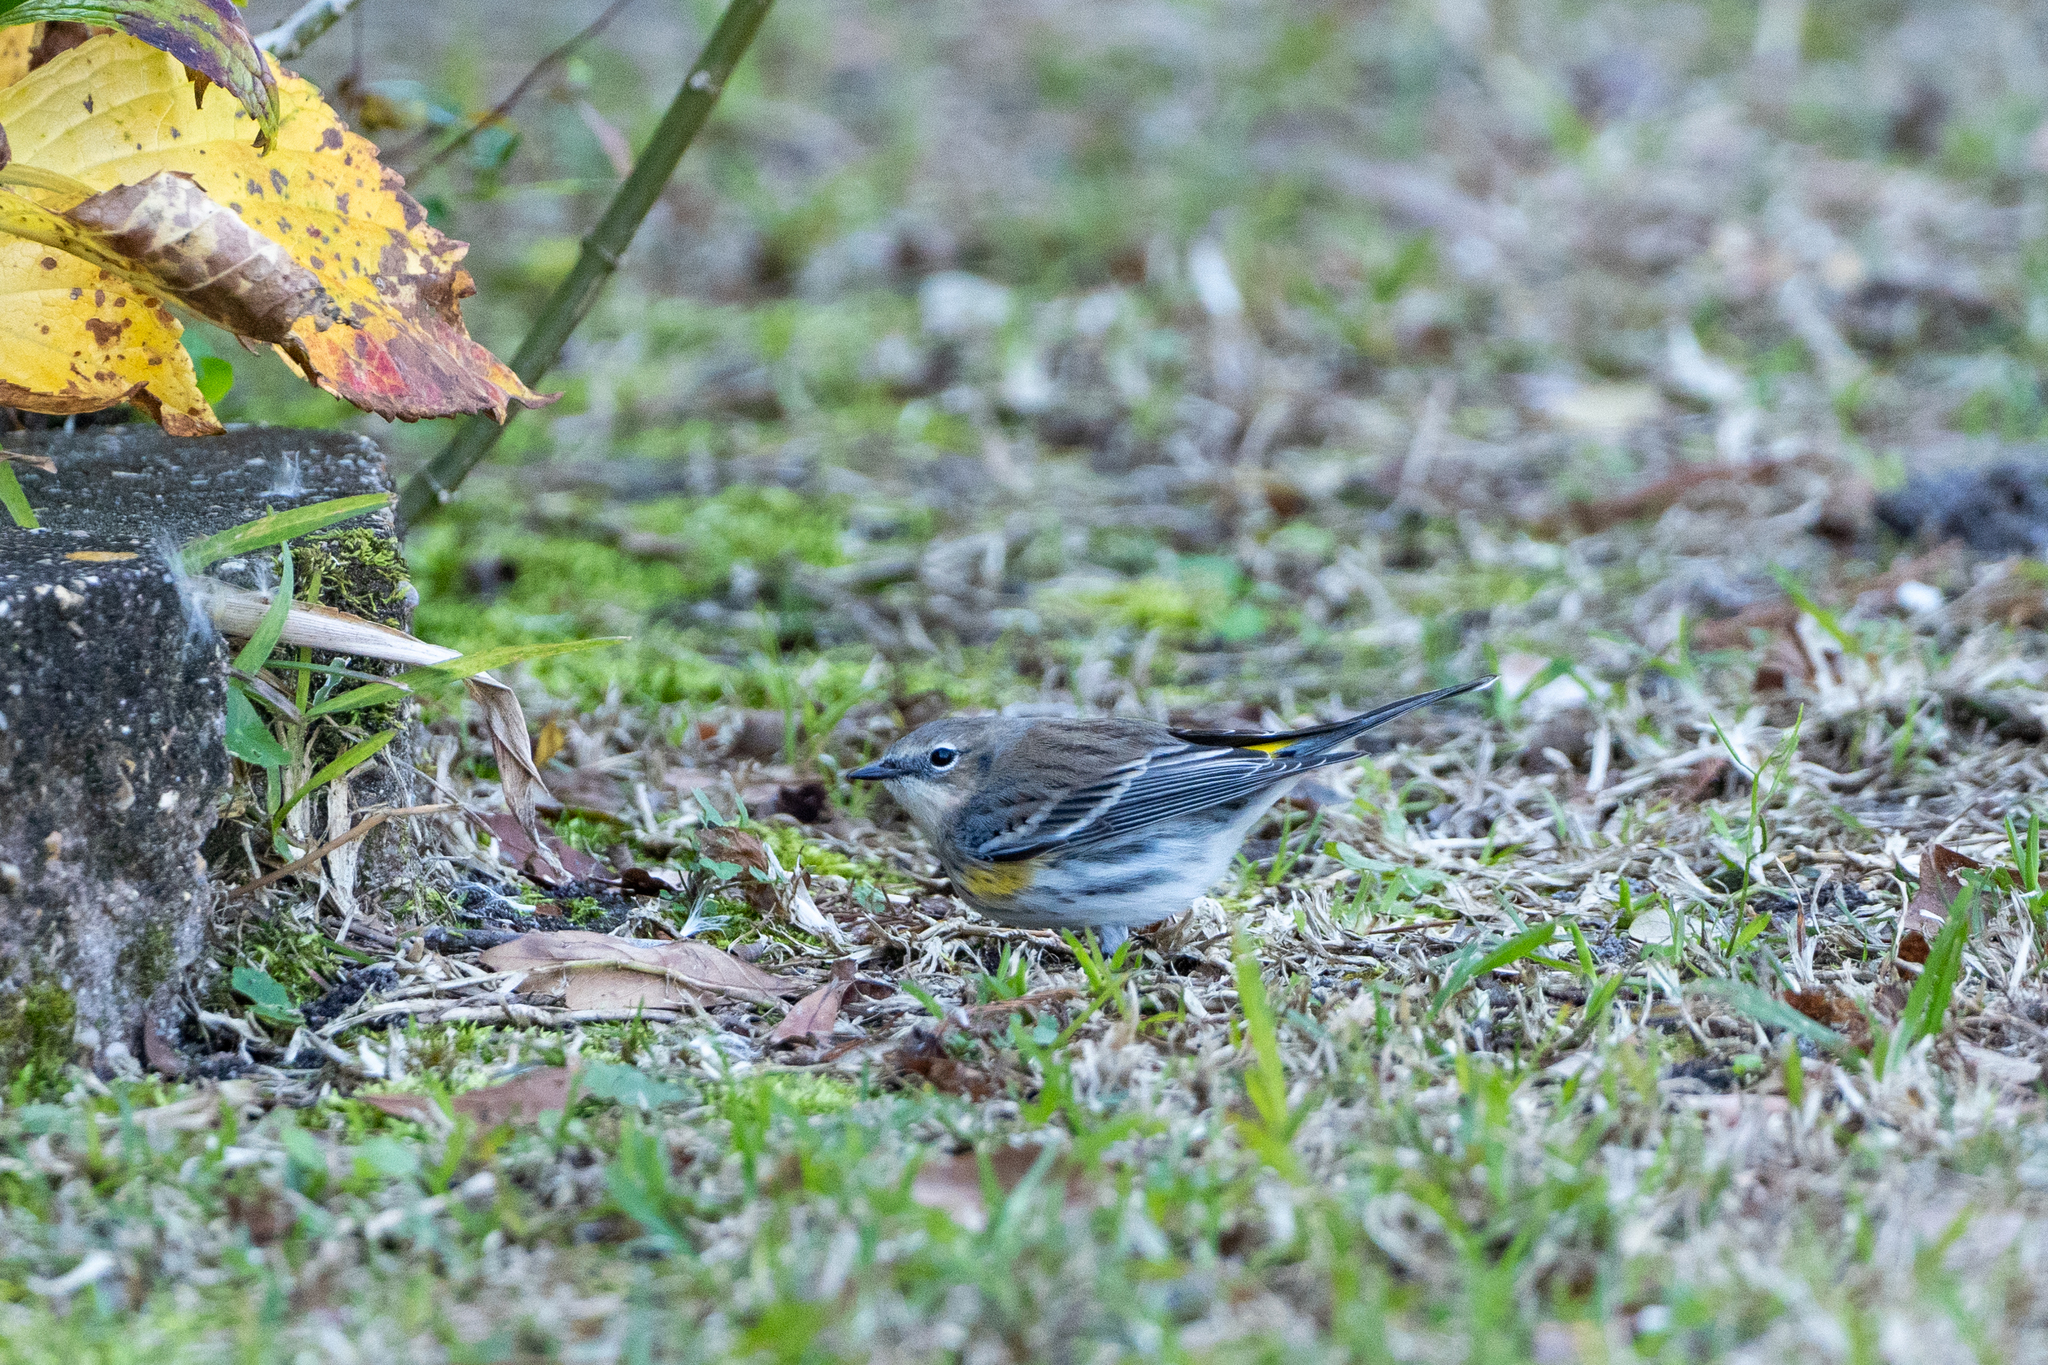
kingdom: Animalia
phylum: Chordata
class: Aves
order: Passeriformes
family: Parulidae
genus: Setophaga
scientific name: Setophaga coronata
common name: Myrtle warbler
